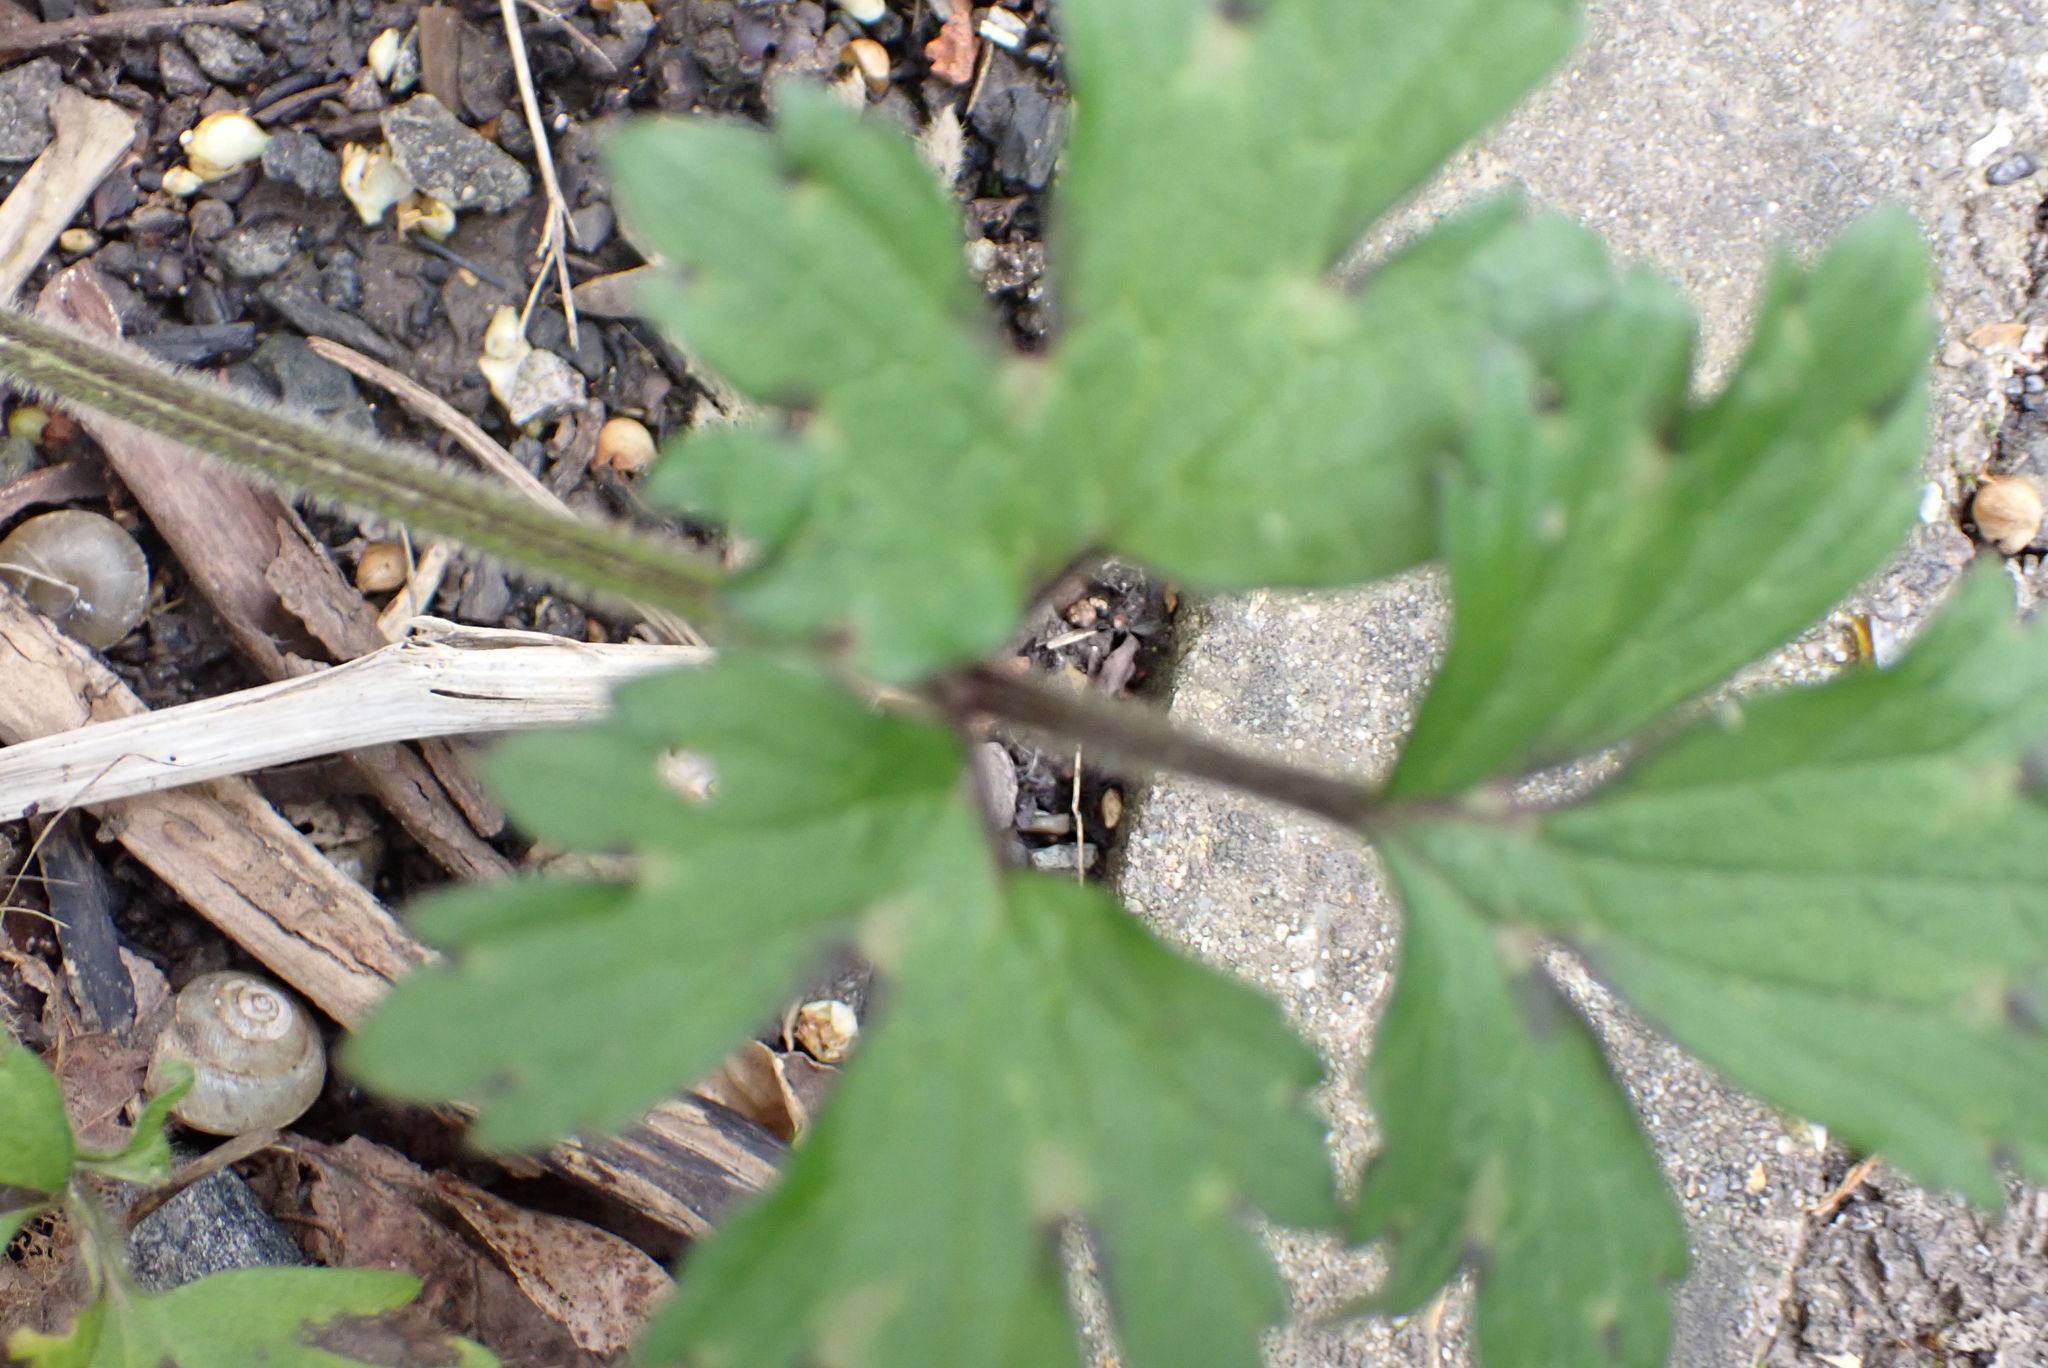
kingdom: Plantae
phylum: Tracheophyta
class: Magnoliopsida
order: Ranunculales
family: Ranunculaceae
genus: Ranunculus
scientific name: Ranunculus repens
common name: Creeping buttercup
